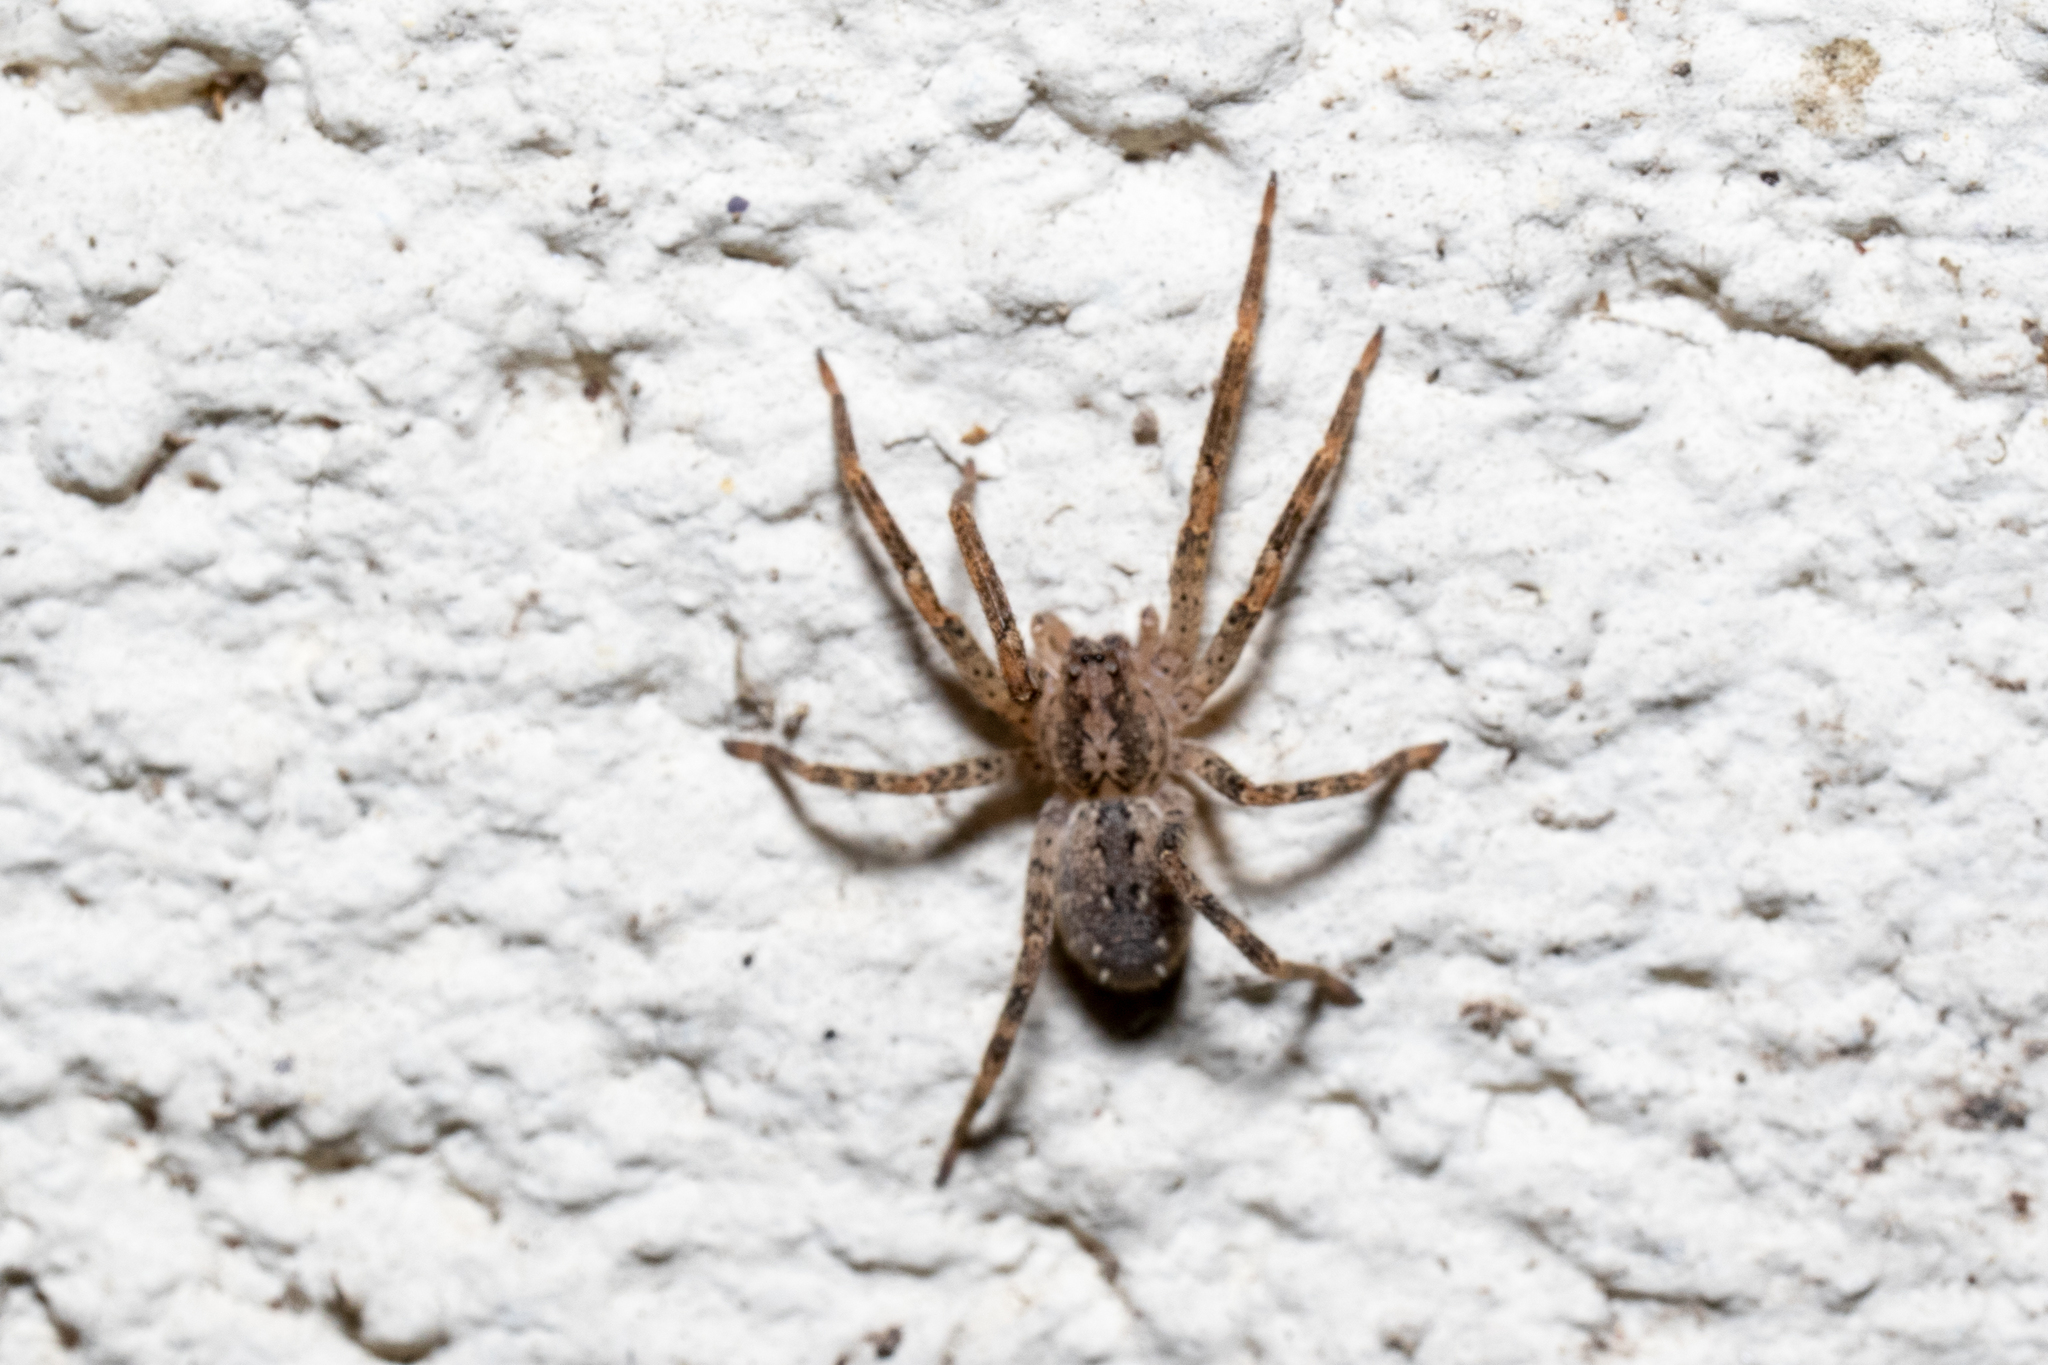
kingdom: Animalia
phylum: Arthropoda
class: Arachnida
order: Araneae
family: Zoropsidae
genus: Zoropsis
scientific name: Zoropsis spinimana
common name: Zoropsid spider
